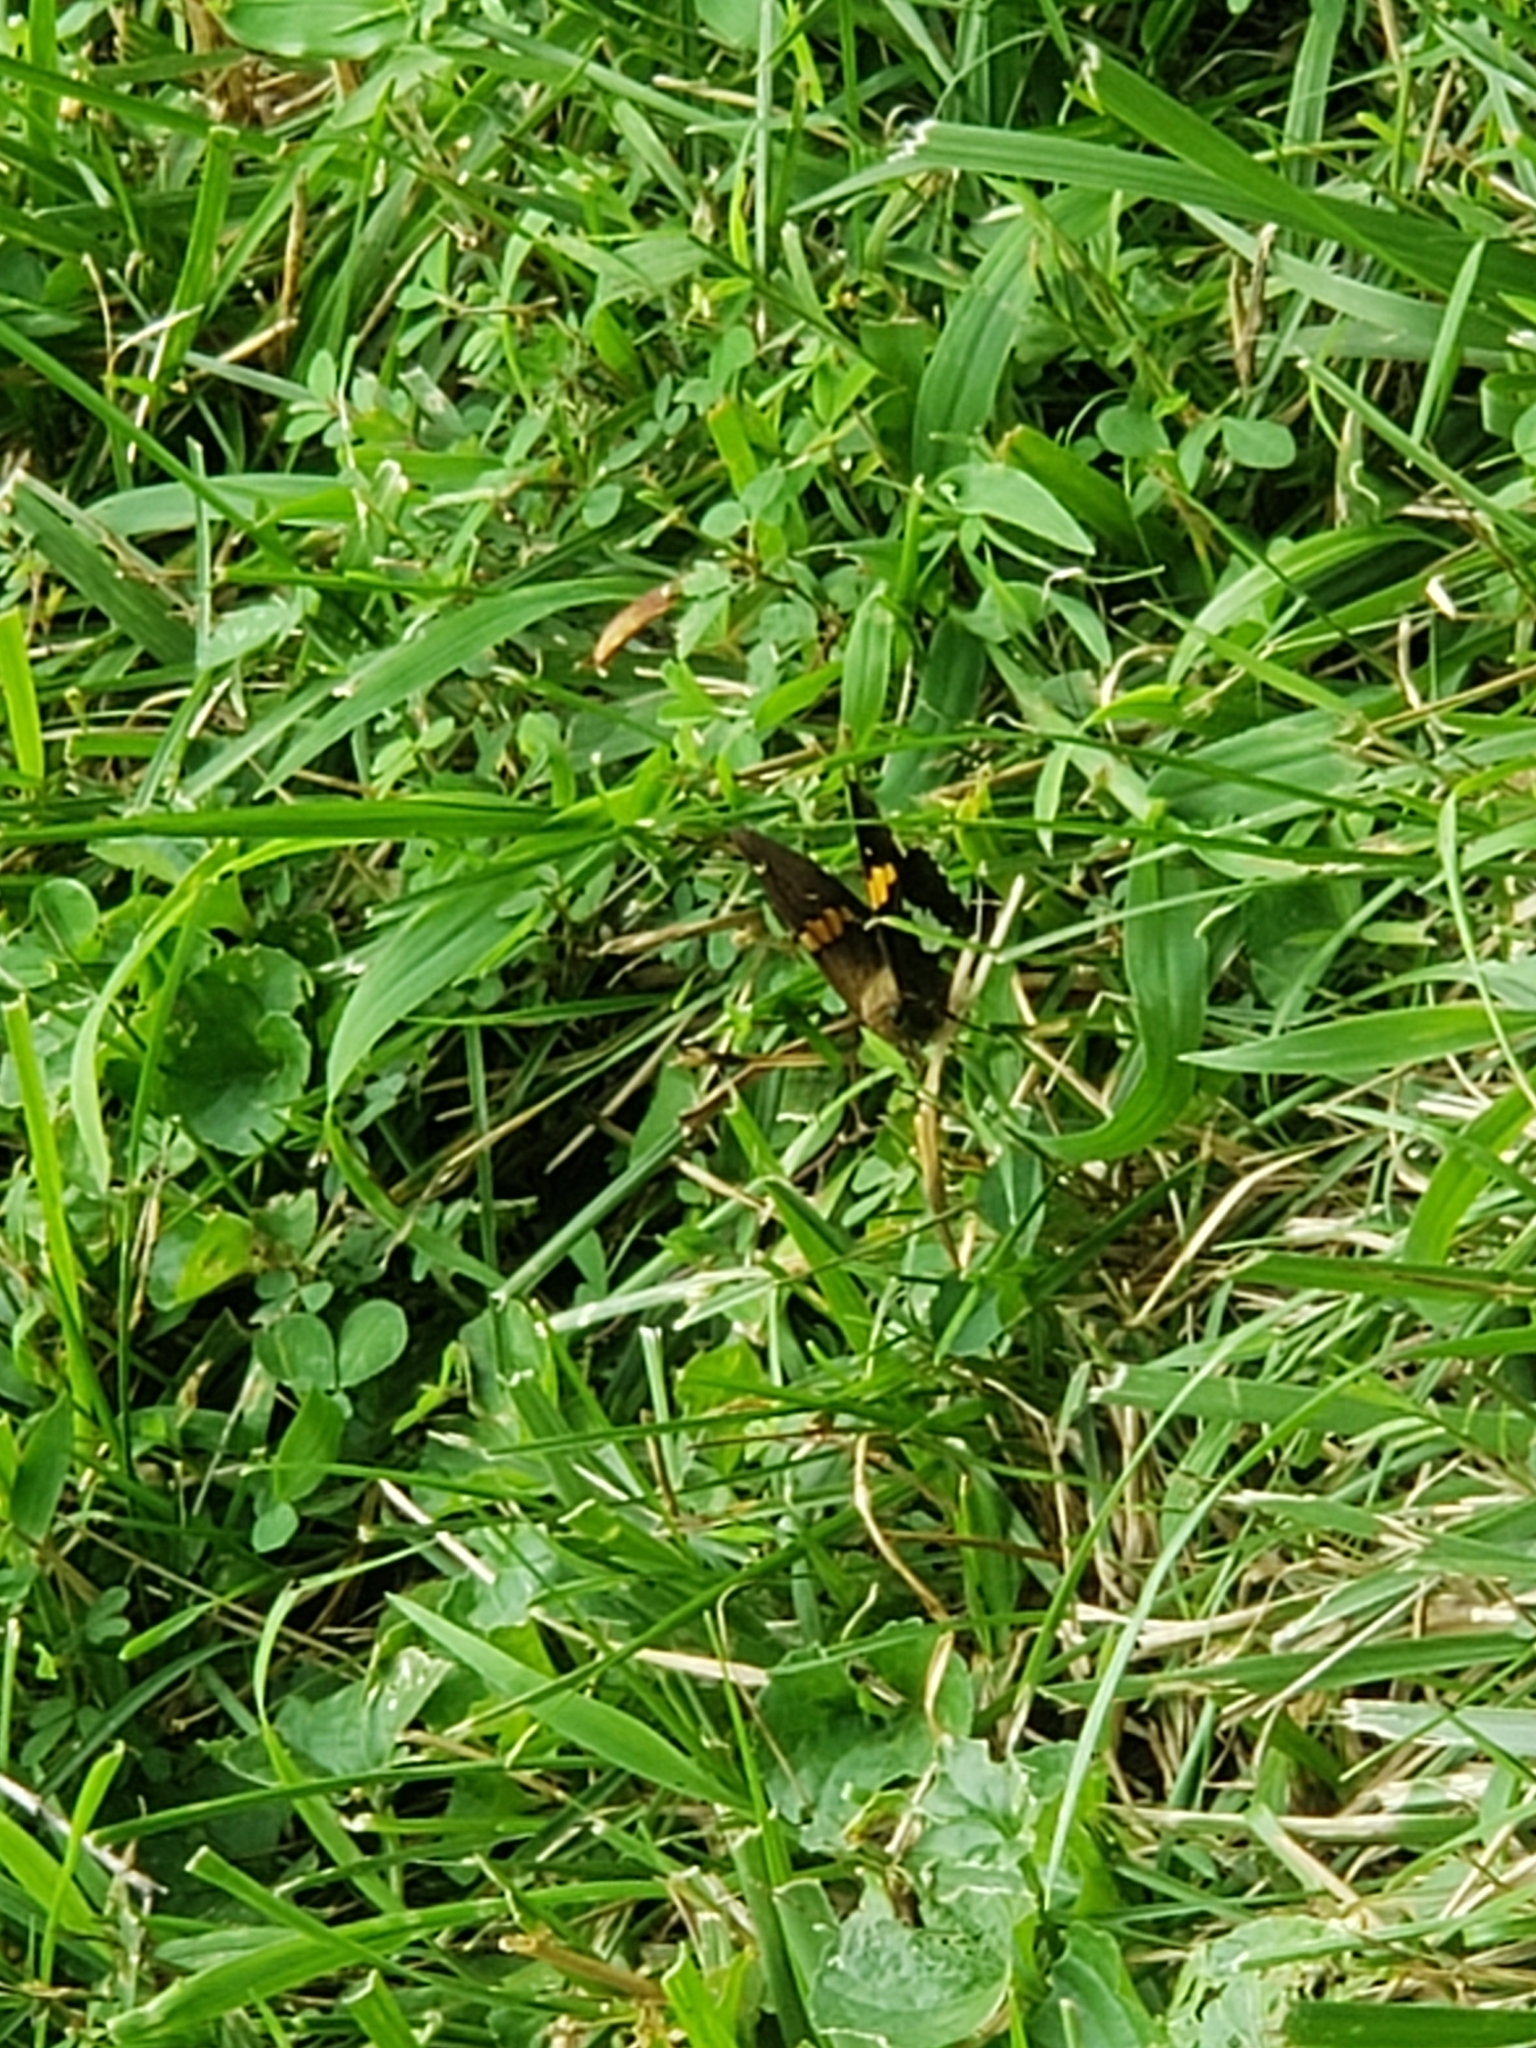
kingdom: Animalia
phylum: Arthropoda
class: Insecta
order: Lepidoptera
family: Hesperiidae
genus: Epargyreus
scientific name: Epargyreus clarus
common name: Silver-spotted skipper
